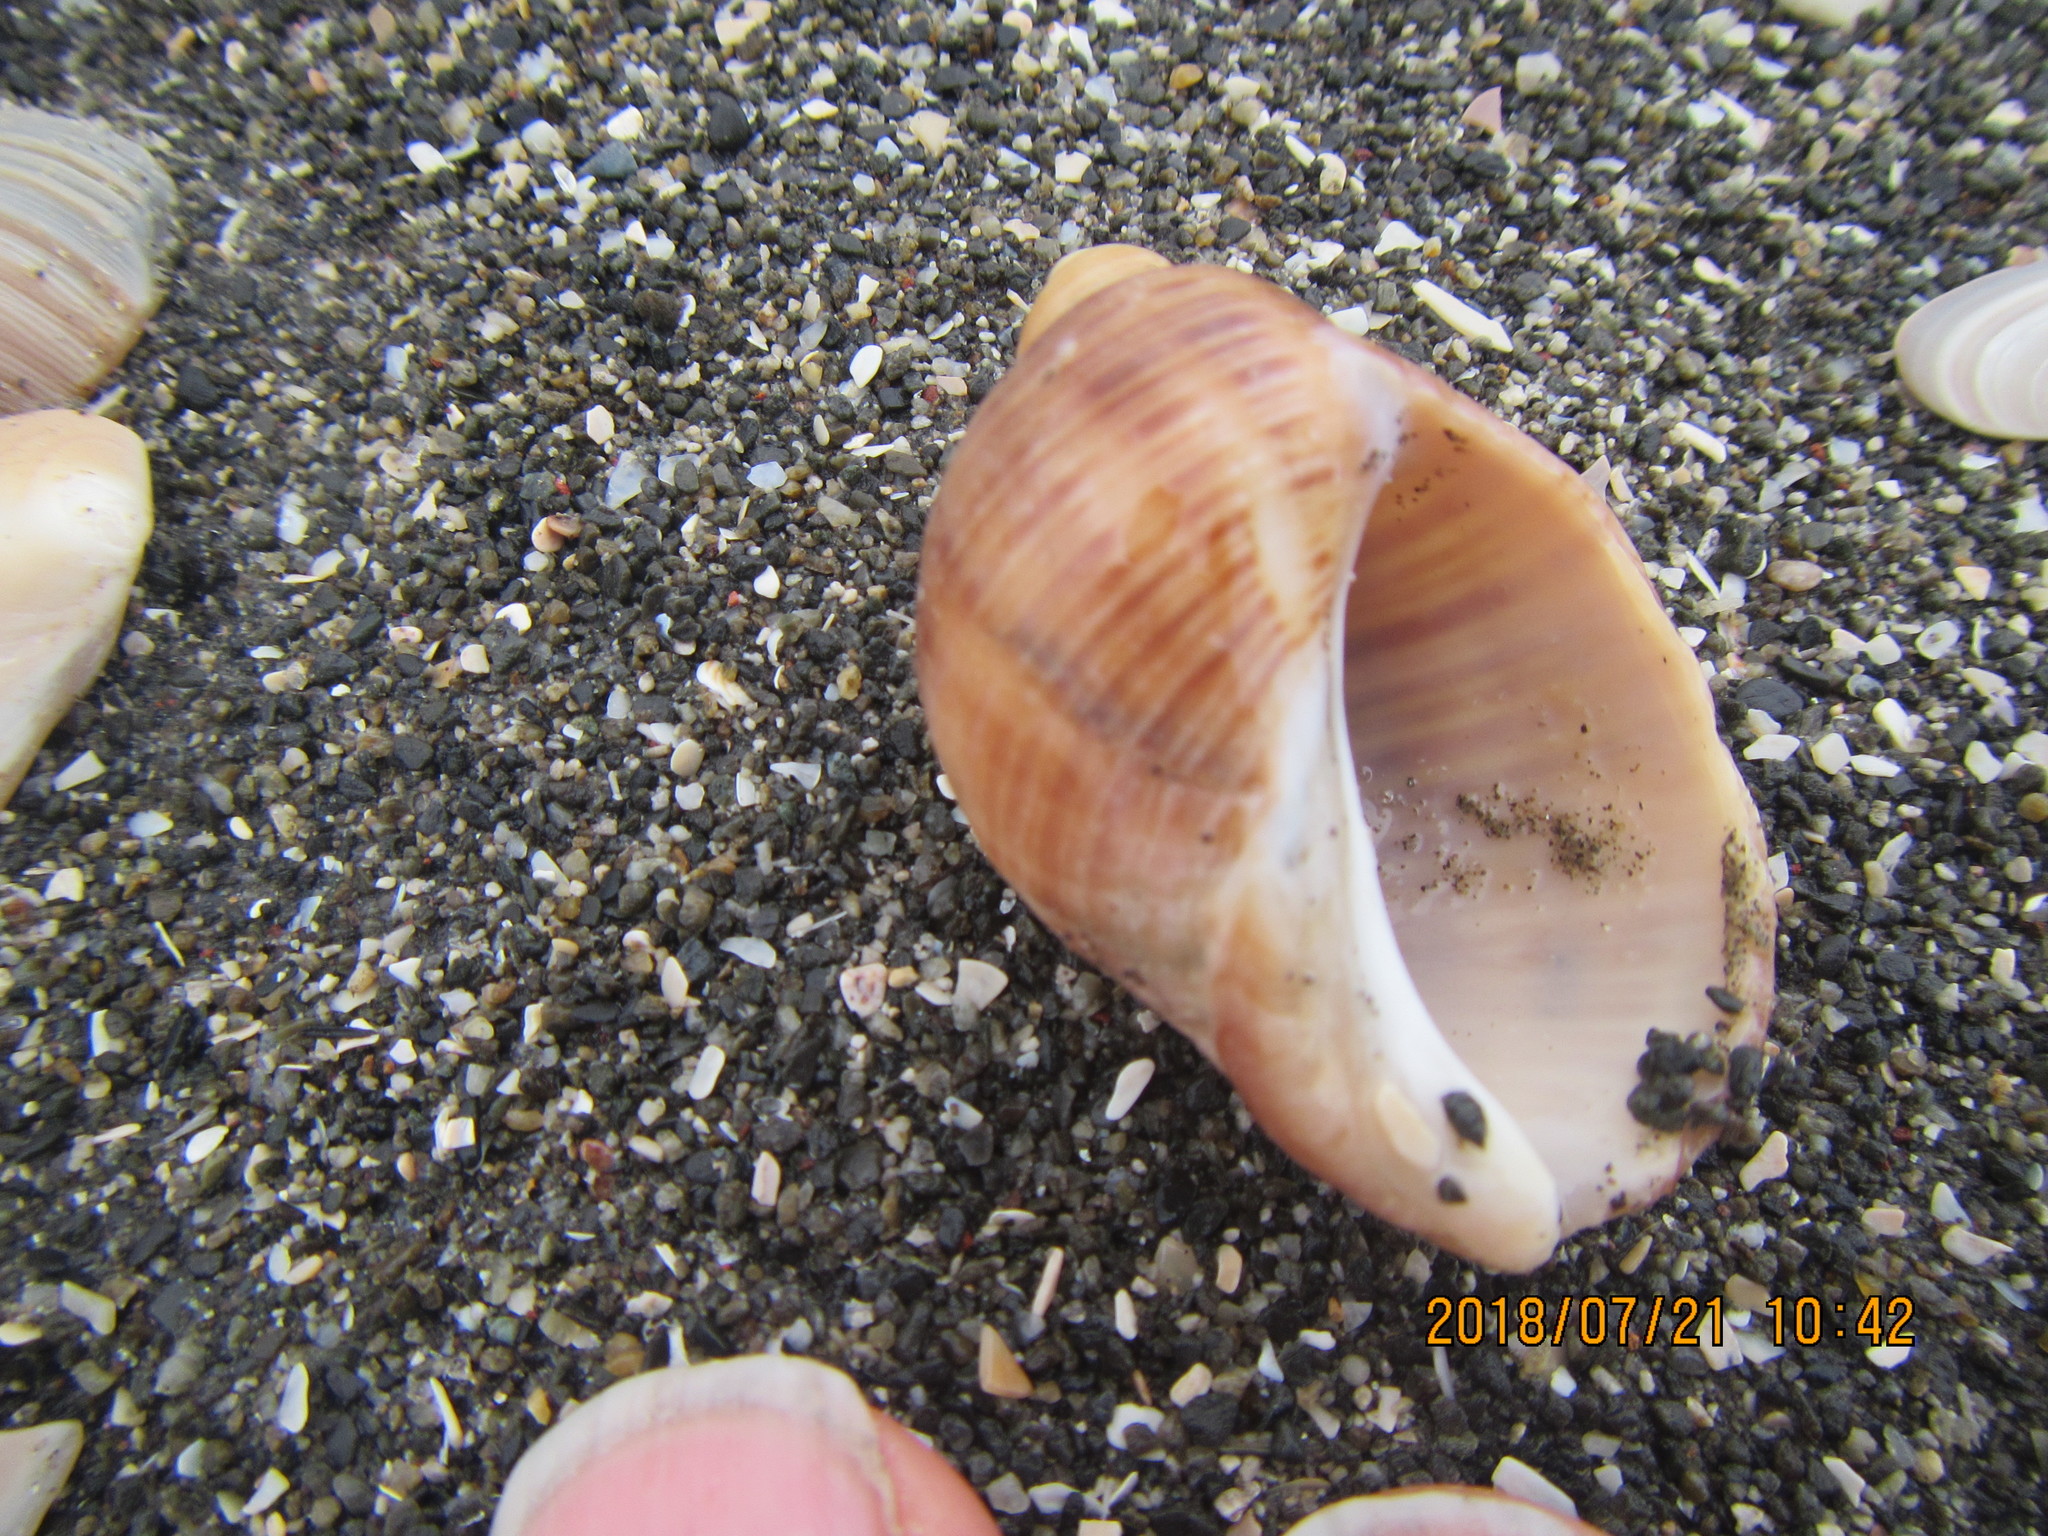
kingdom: Animalia
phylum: Mollusca
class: Gastropoda
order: Neogastropoda
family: Muricidae
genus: Dicathais
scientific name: Dicathais orbita
